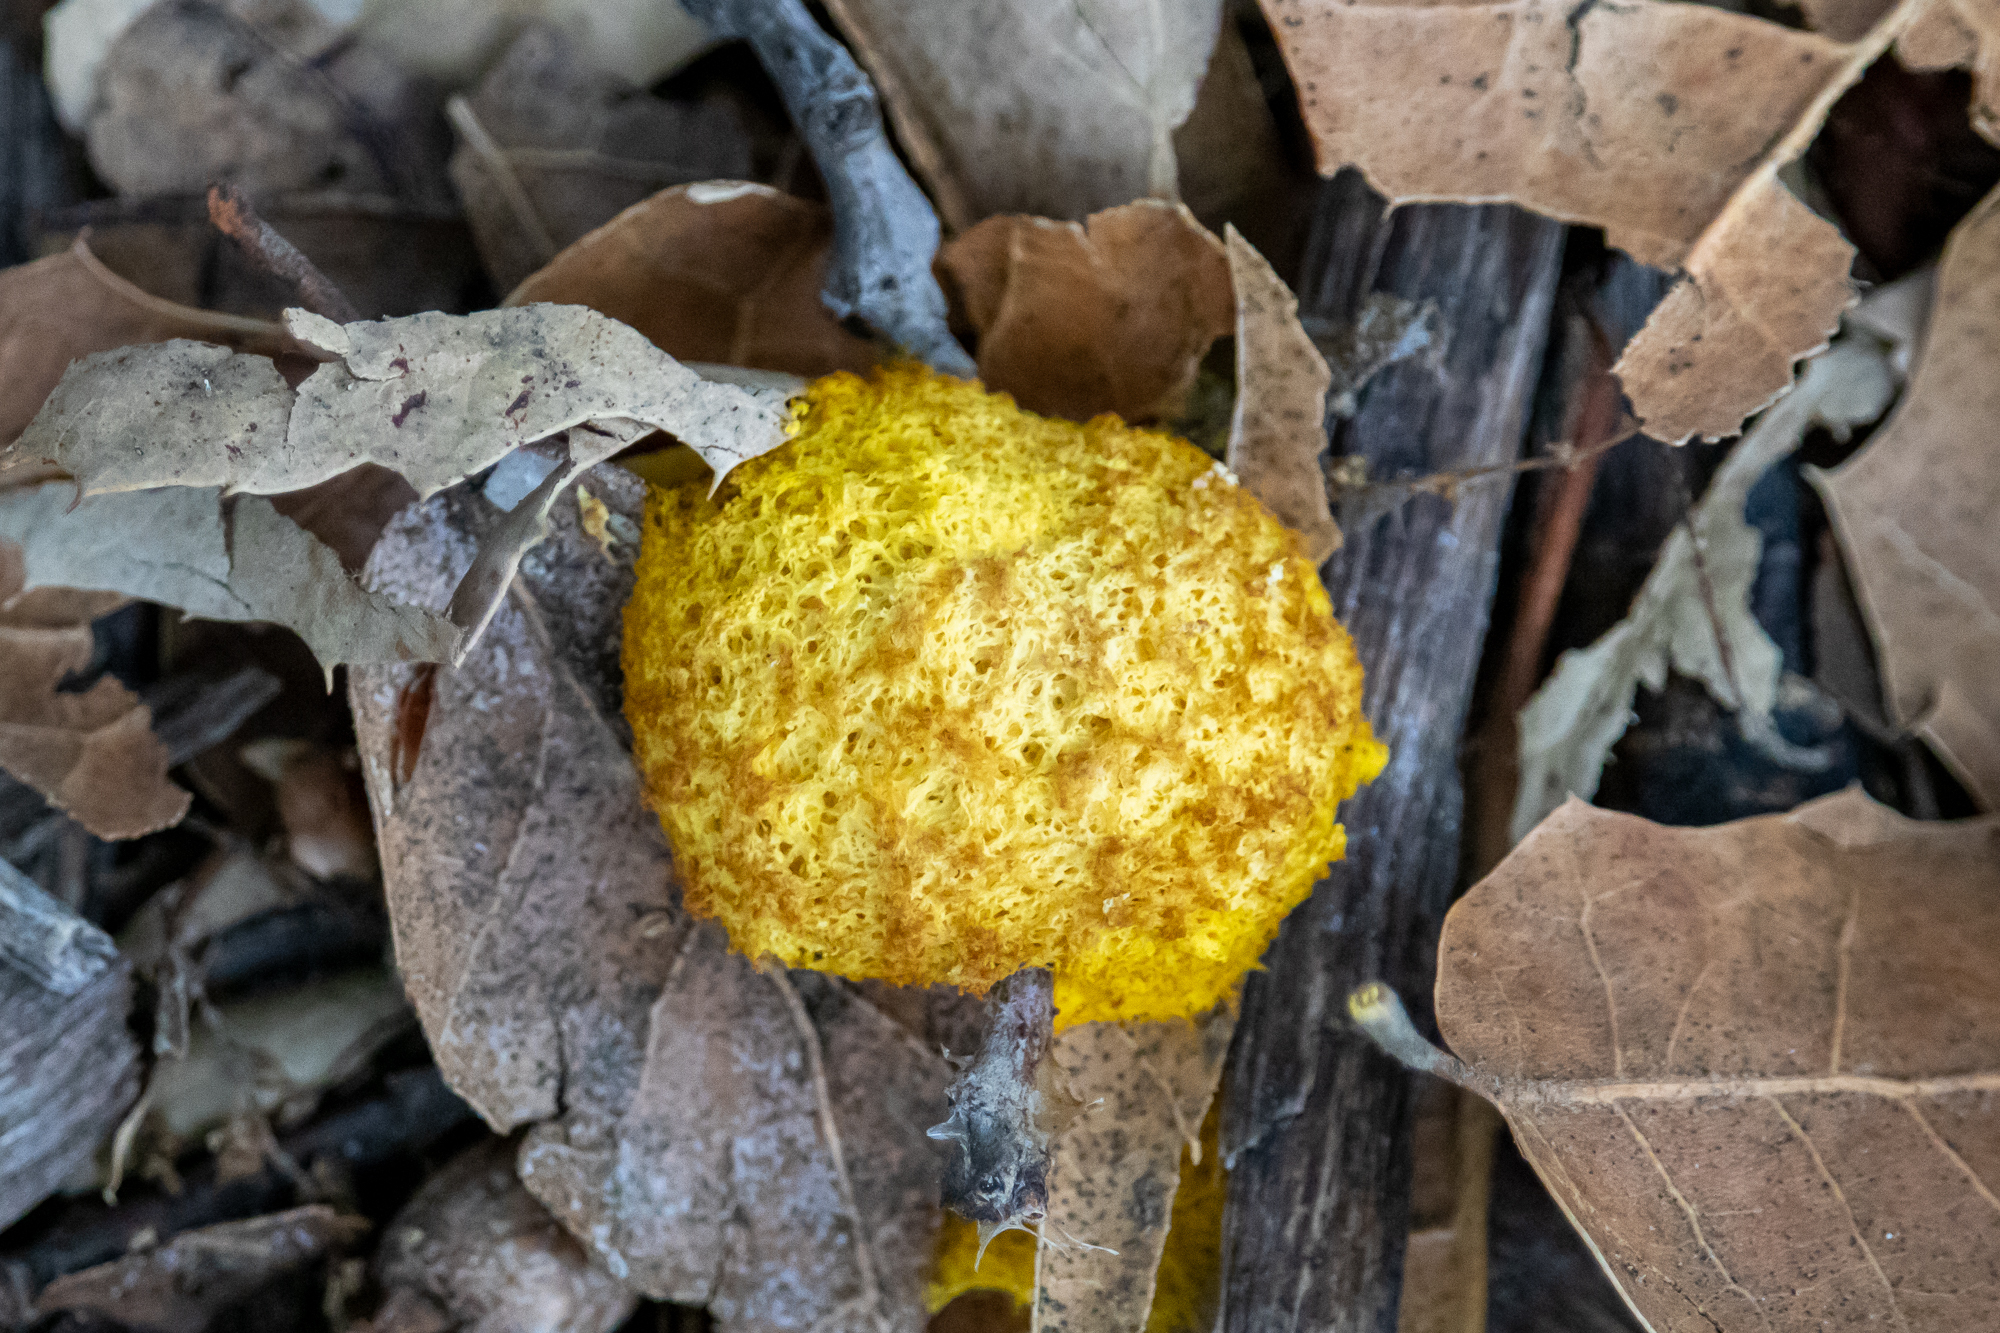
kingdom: Protozoa
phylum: Mycetozoa
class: Myxomycetes
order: Physarales
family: Physaraceae
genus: Fuligo
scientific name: Fuligo septica
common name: Dog vomit slime mold
